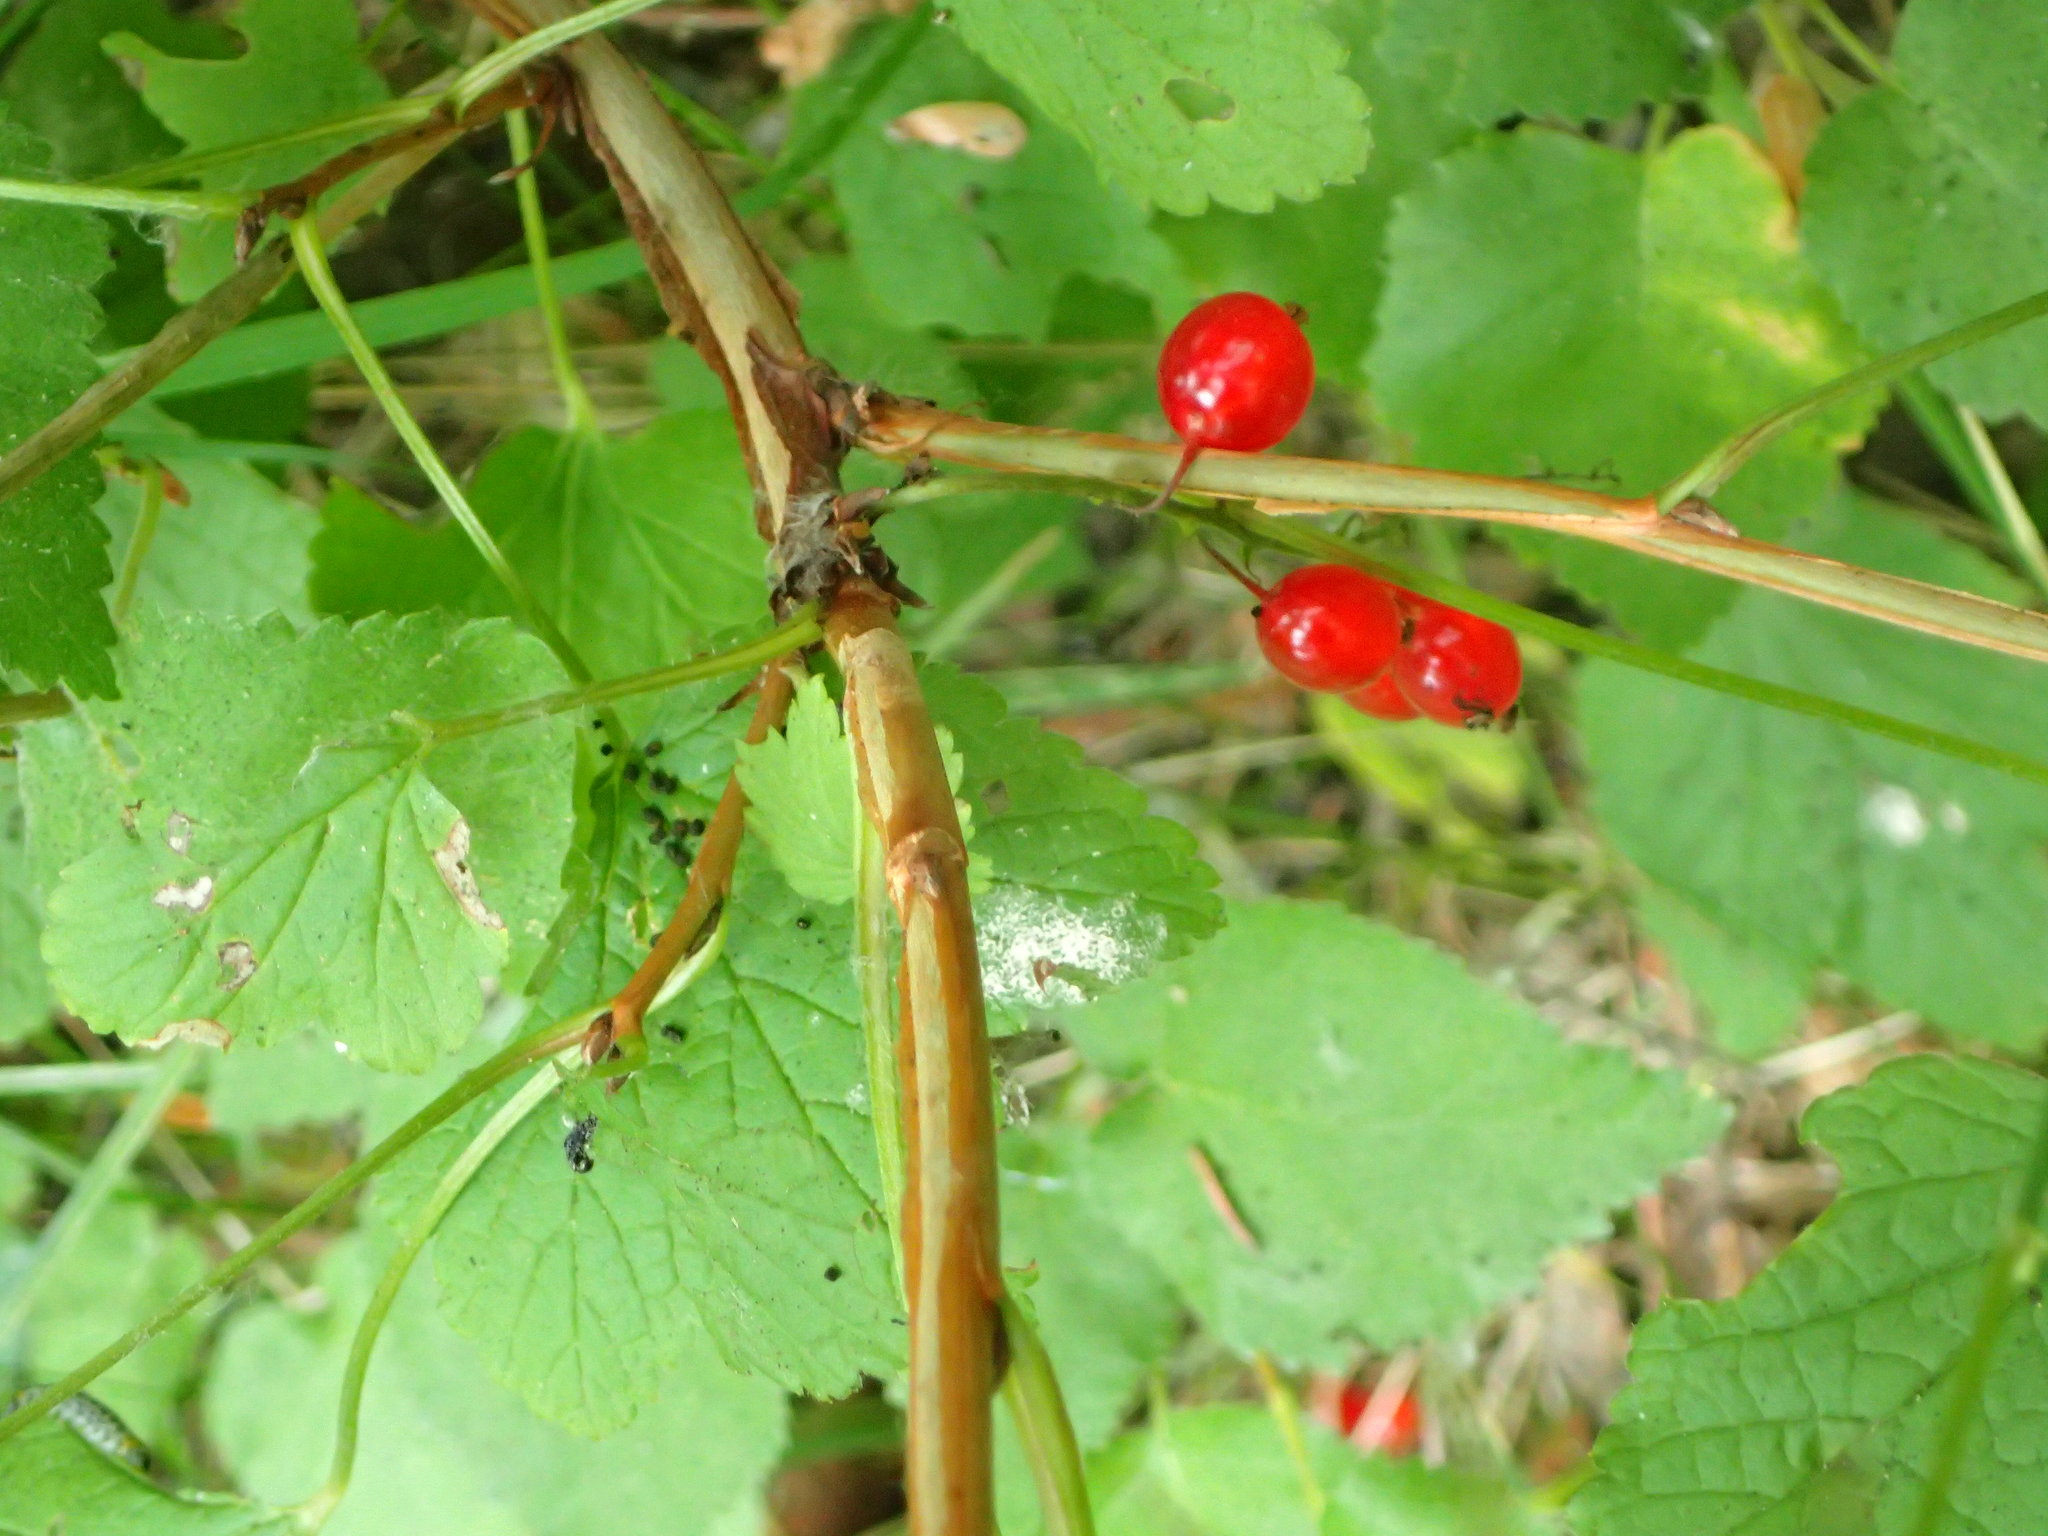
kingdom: Plantae
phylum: Tracheophyta
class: Magnoliopsida
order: Saxifragales
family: Grossulariaceae
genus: Ribes
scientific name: Ribes triste
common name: Swamp red currant
